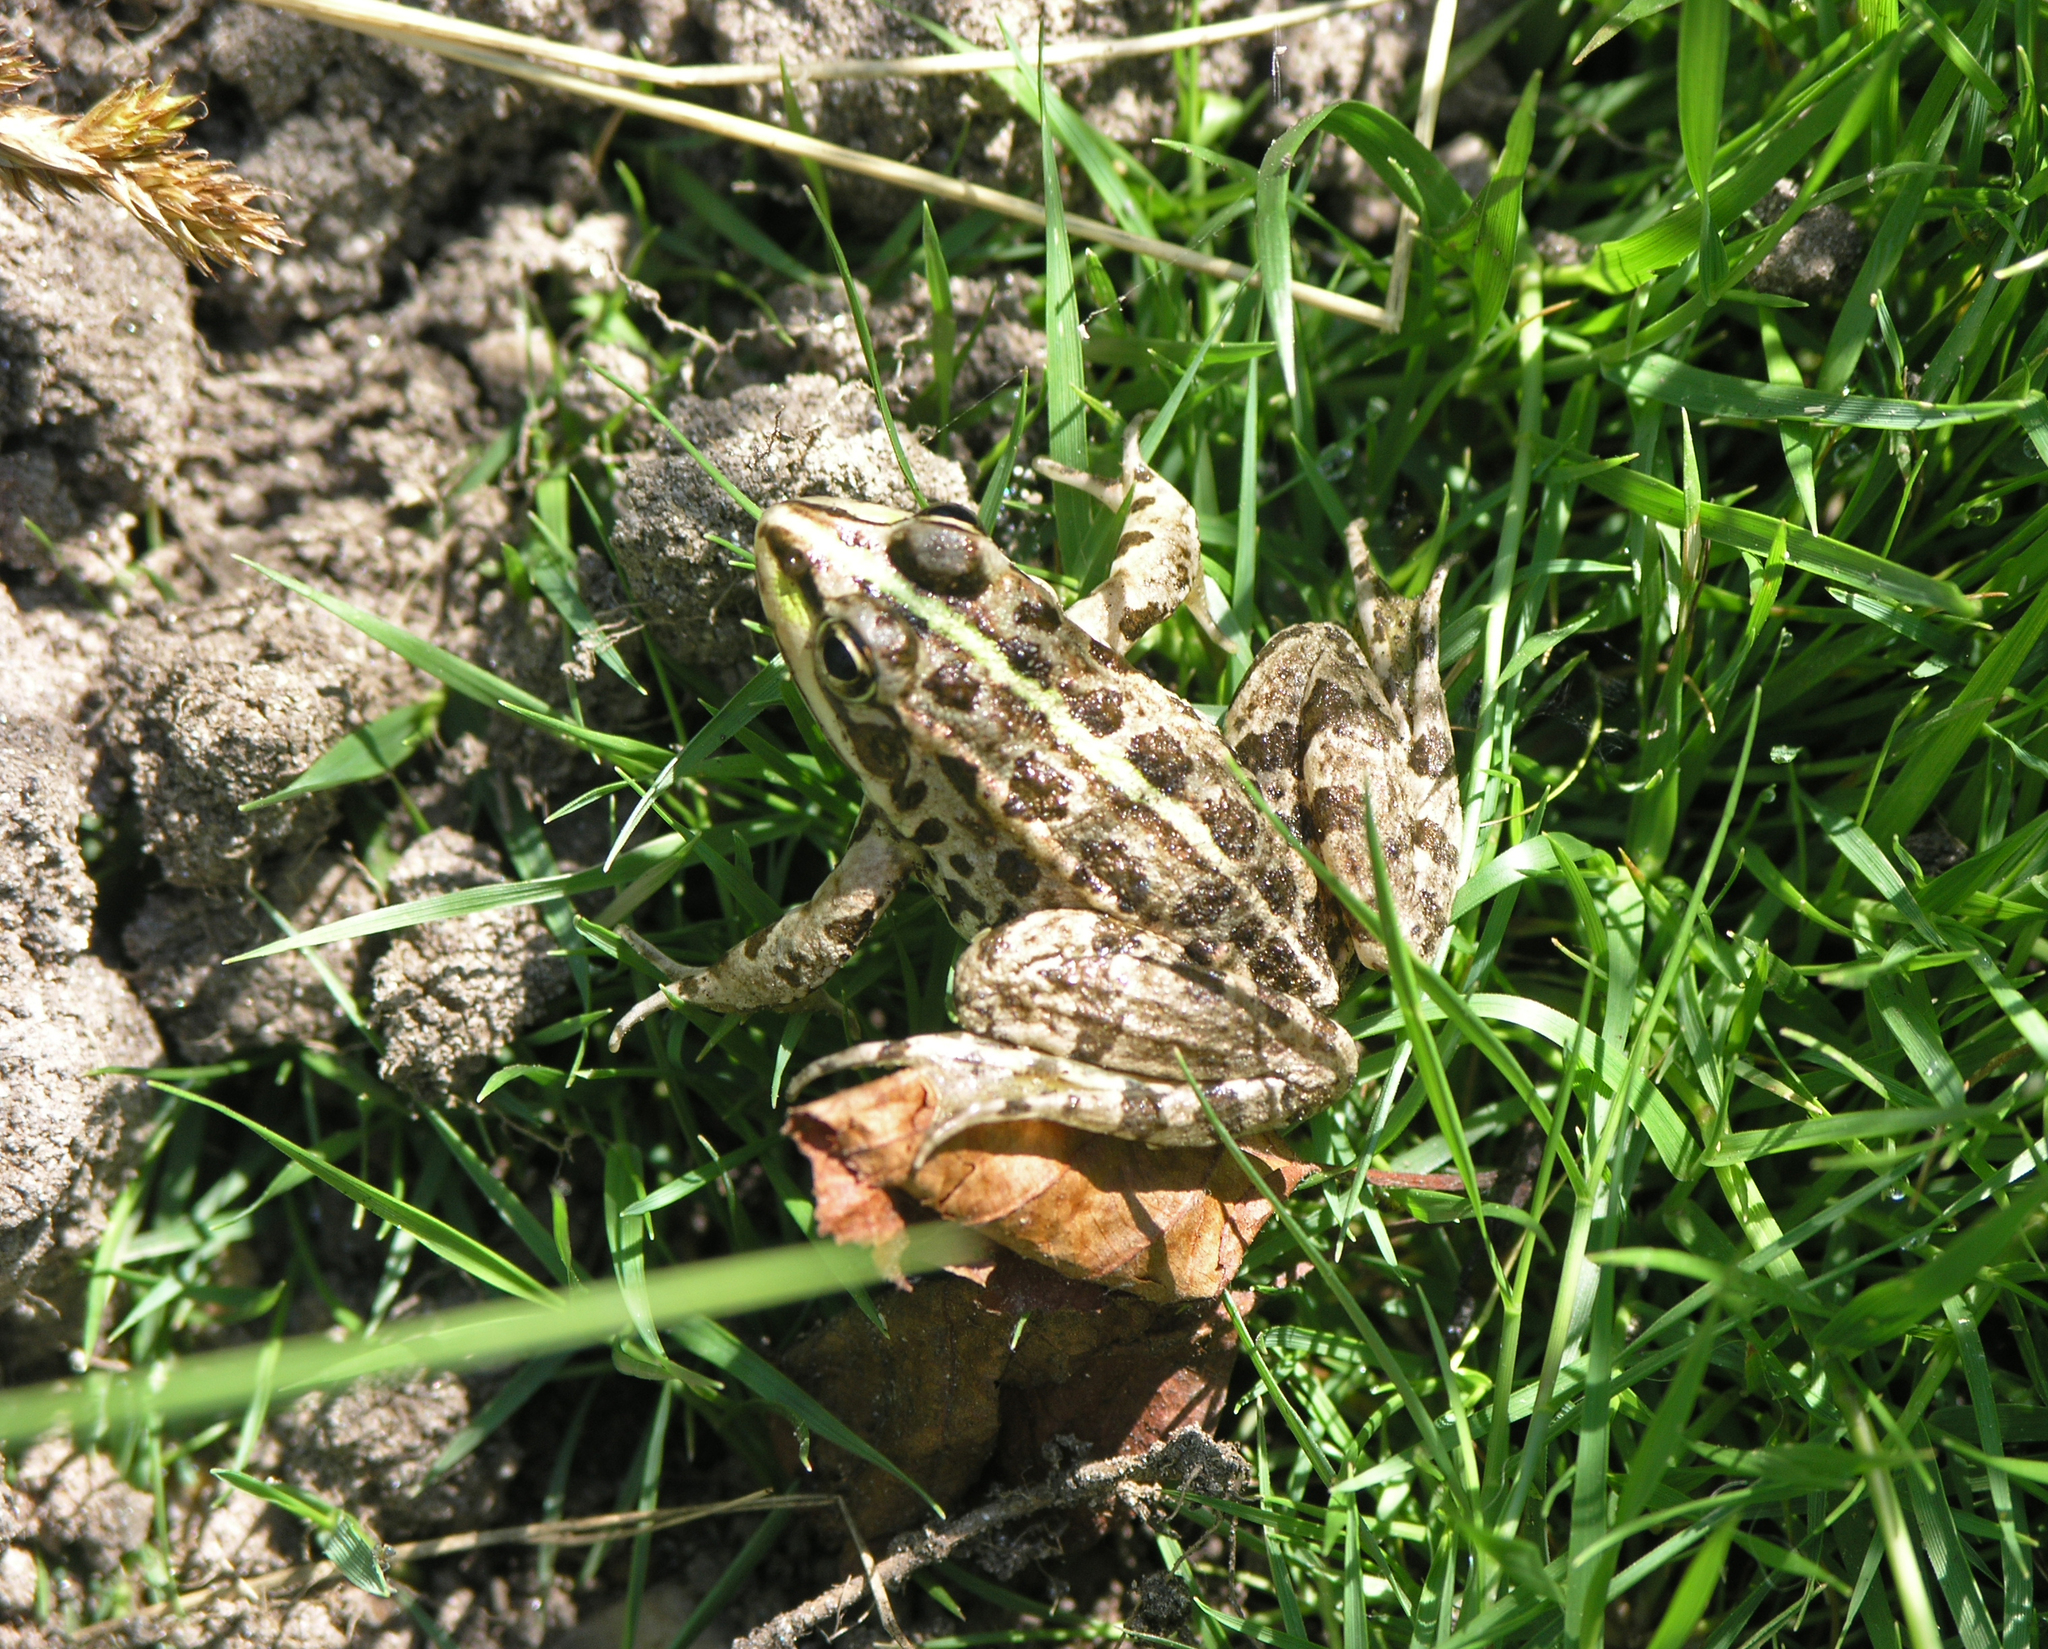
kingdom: Animalia
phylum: Chordata
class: Amphibia
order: Anura
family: Ranidae
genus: Pelophylax
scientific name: Pelophylax perezi
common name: Perez's frog
